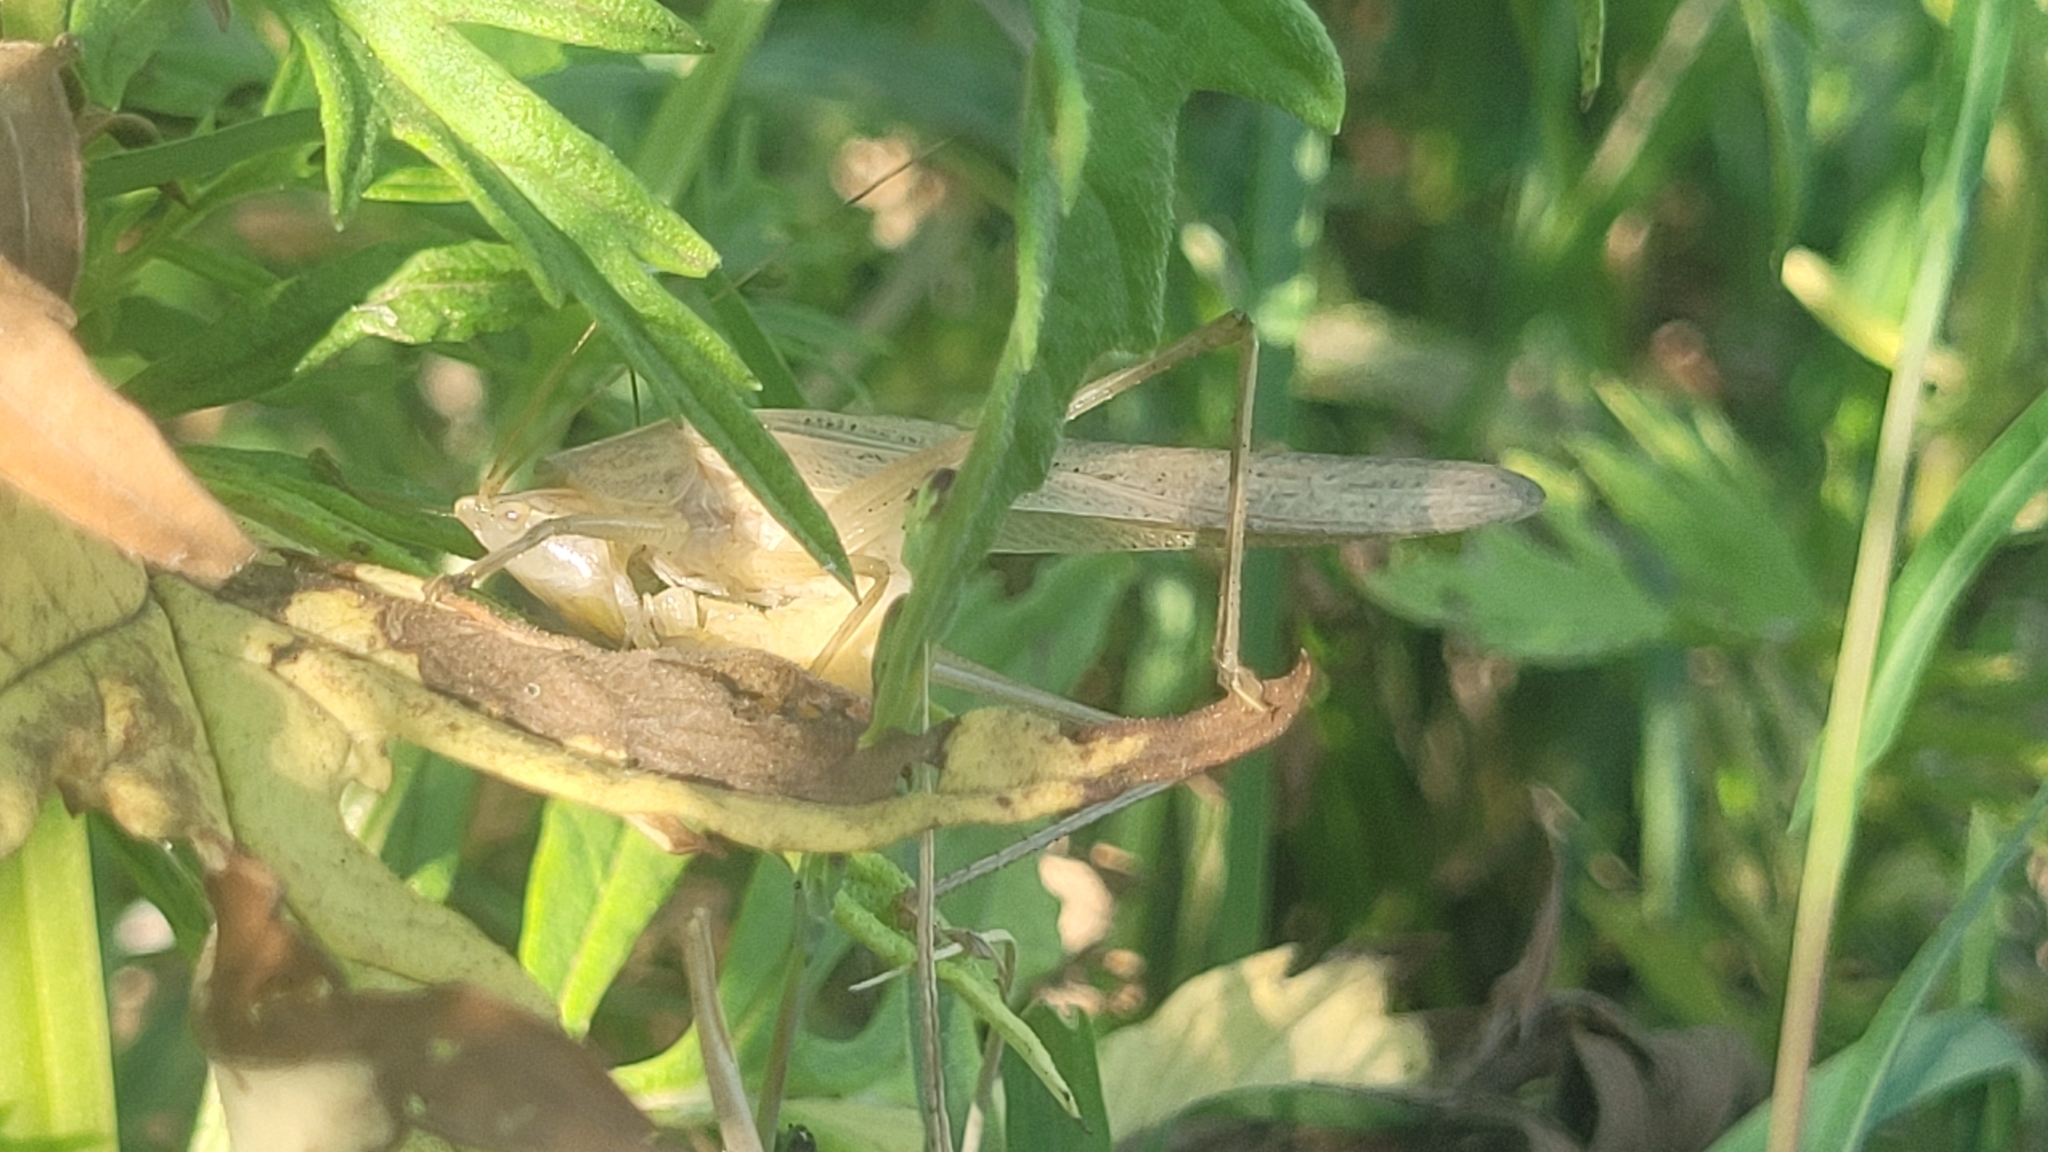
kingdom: Animalia
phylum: Arthropoda
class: Insecta
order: Orthoptera
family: Tettigoniidae
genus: Ruspolia
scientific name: Ruspolia nitidula
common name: Large conehead
